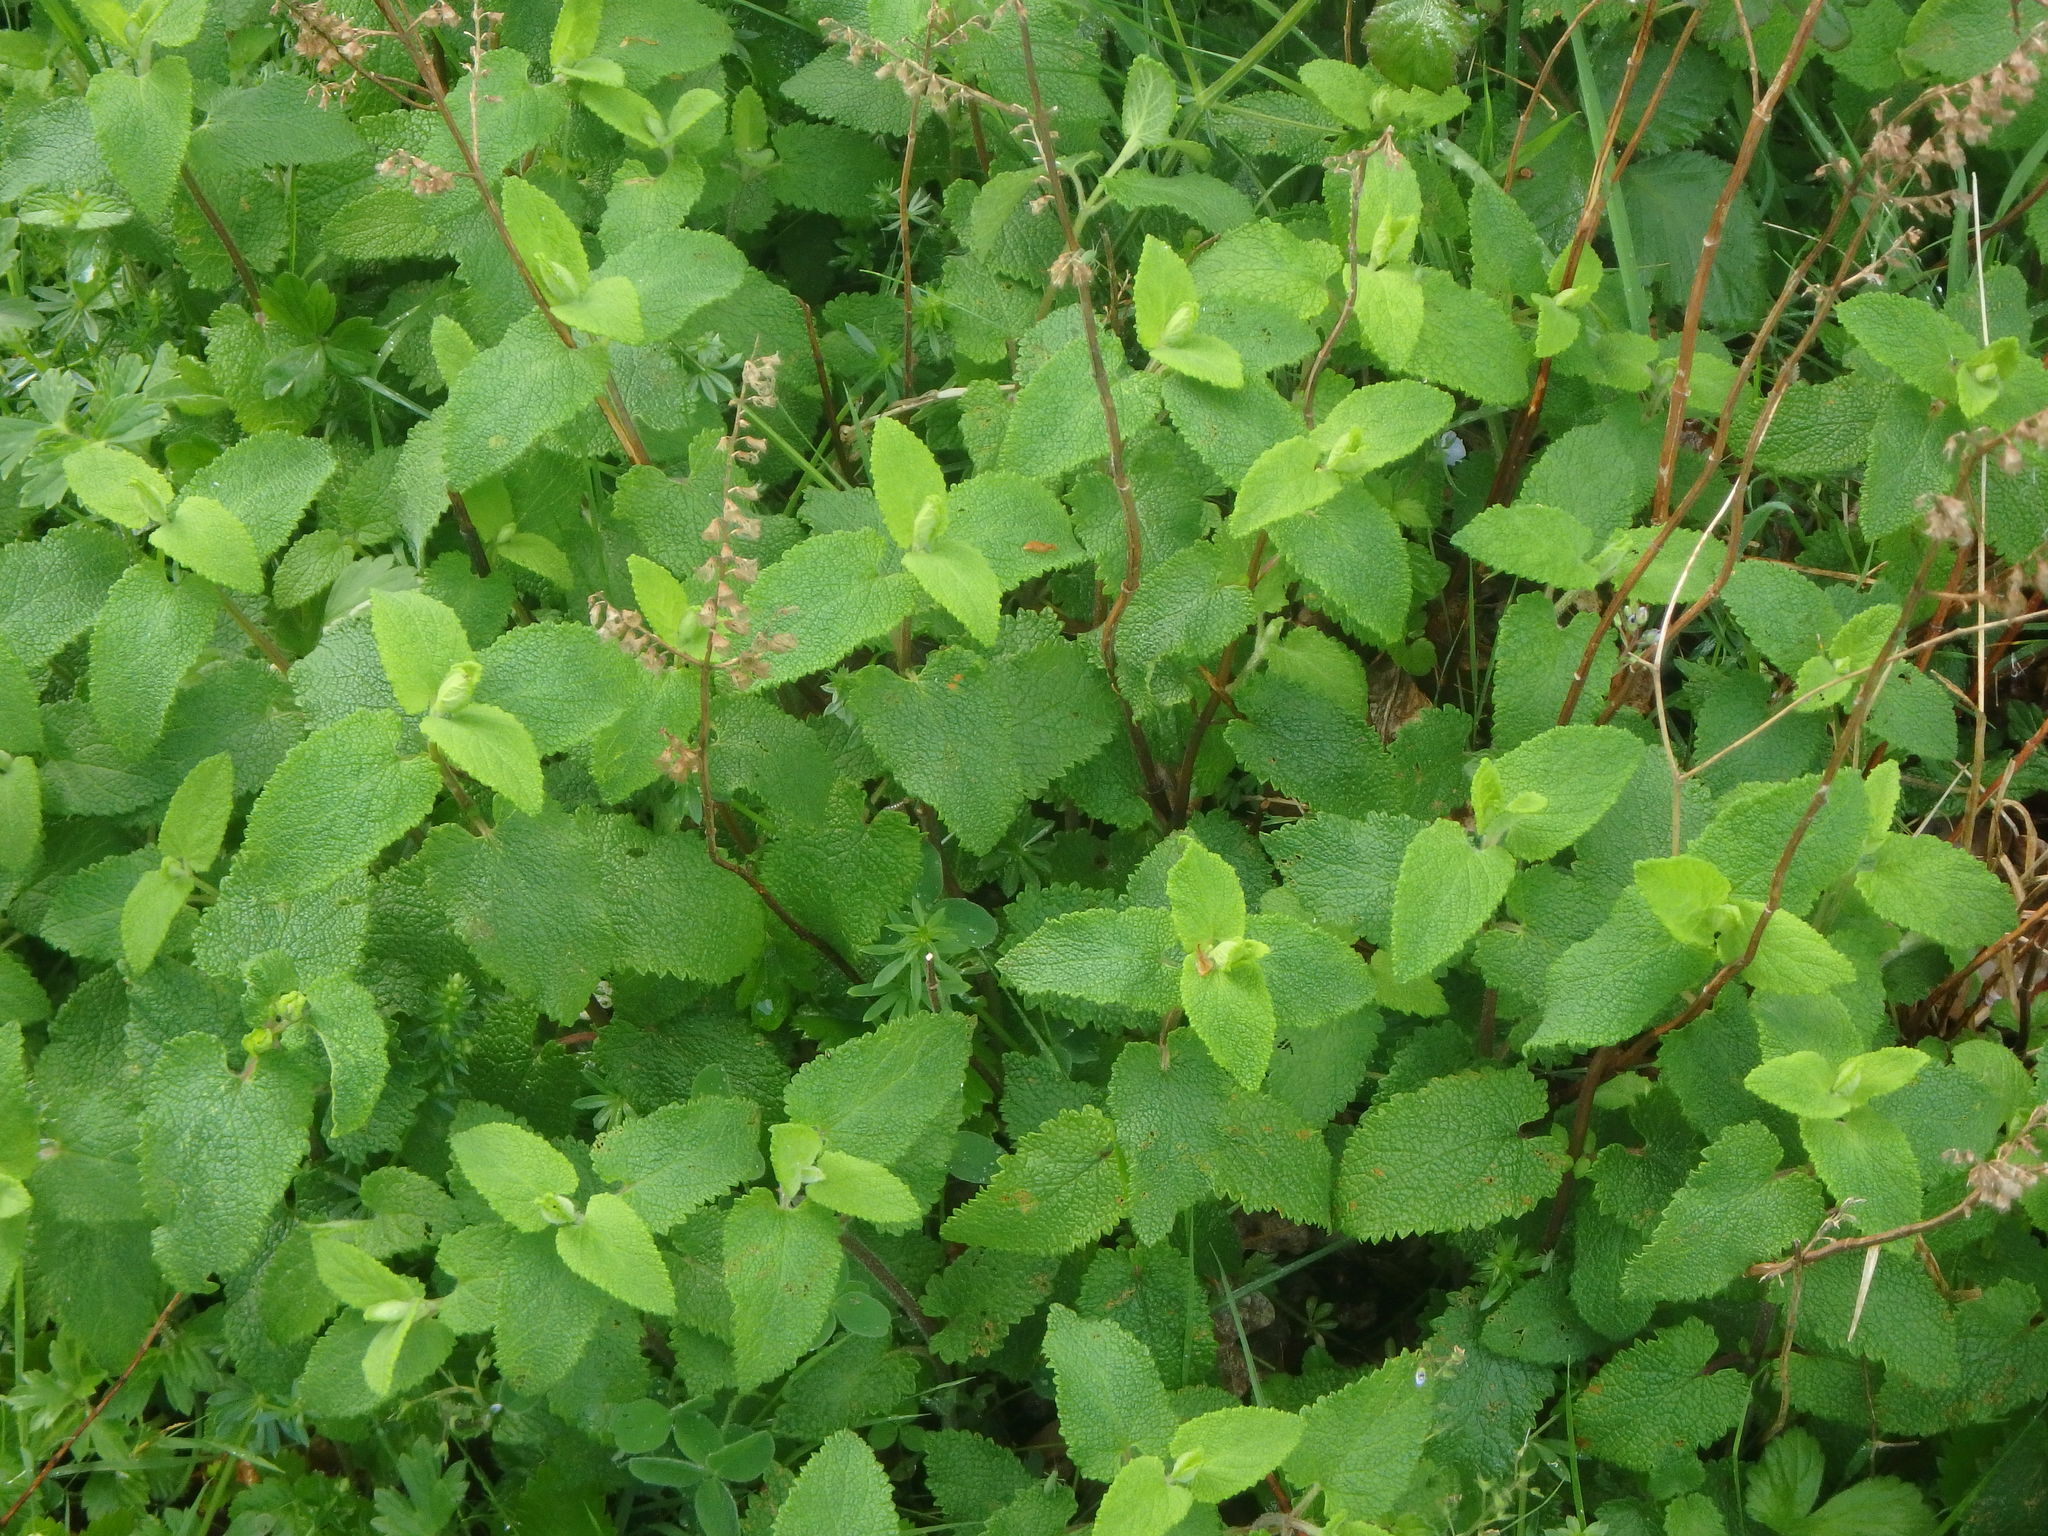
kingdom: Plantae
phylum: Tracheophyta
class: Magnoliopsida
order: Lamiales
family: Lamiaceae
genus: Teucrium
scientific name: Teucrium scorodonia
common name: Woodland germander
